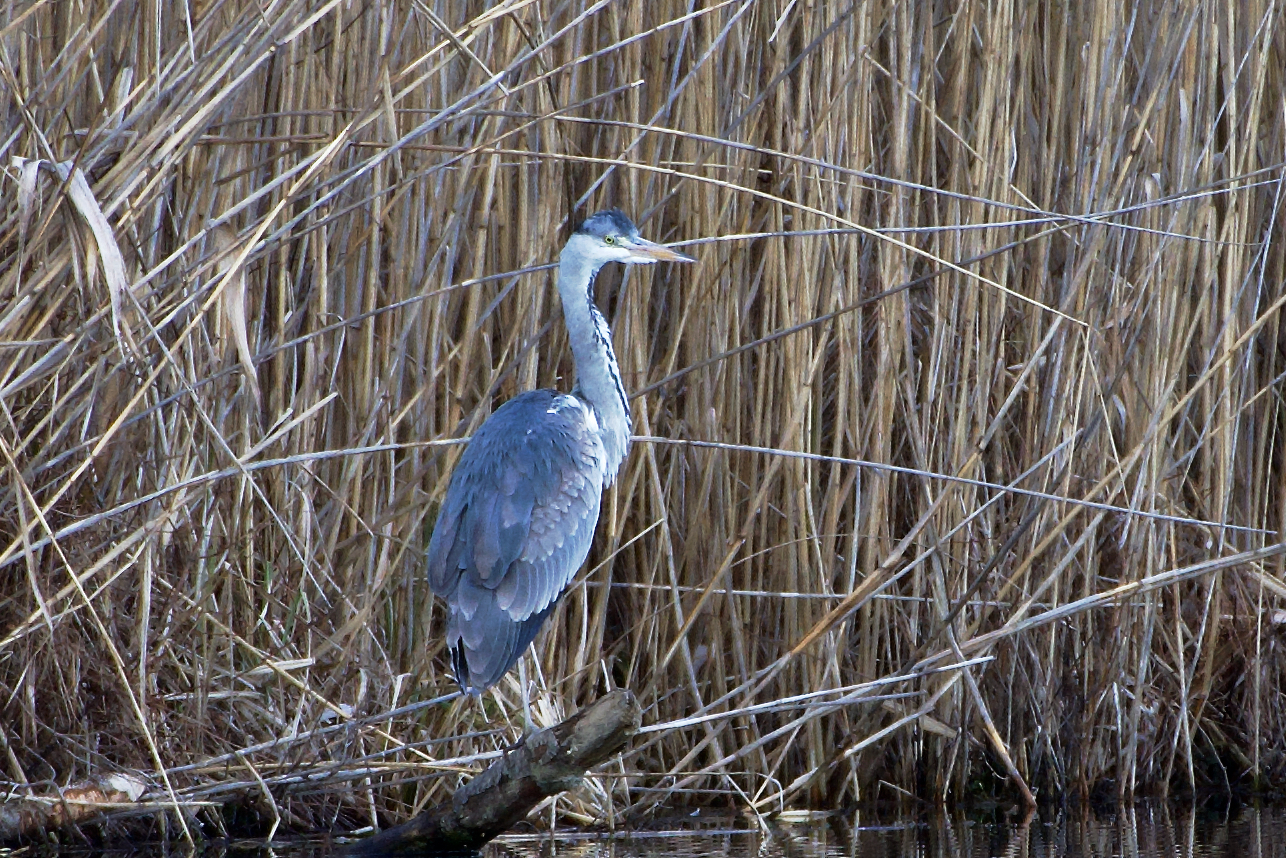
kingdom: Animalia
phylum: Chordata
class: Aves
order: Pelecaniformes
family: Ardeidae
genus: Ardea
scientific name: Ardea cinerea
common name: Grey heron
